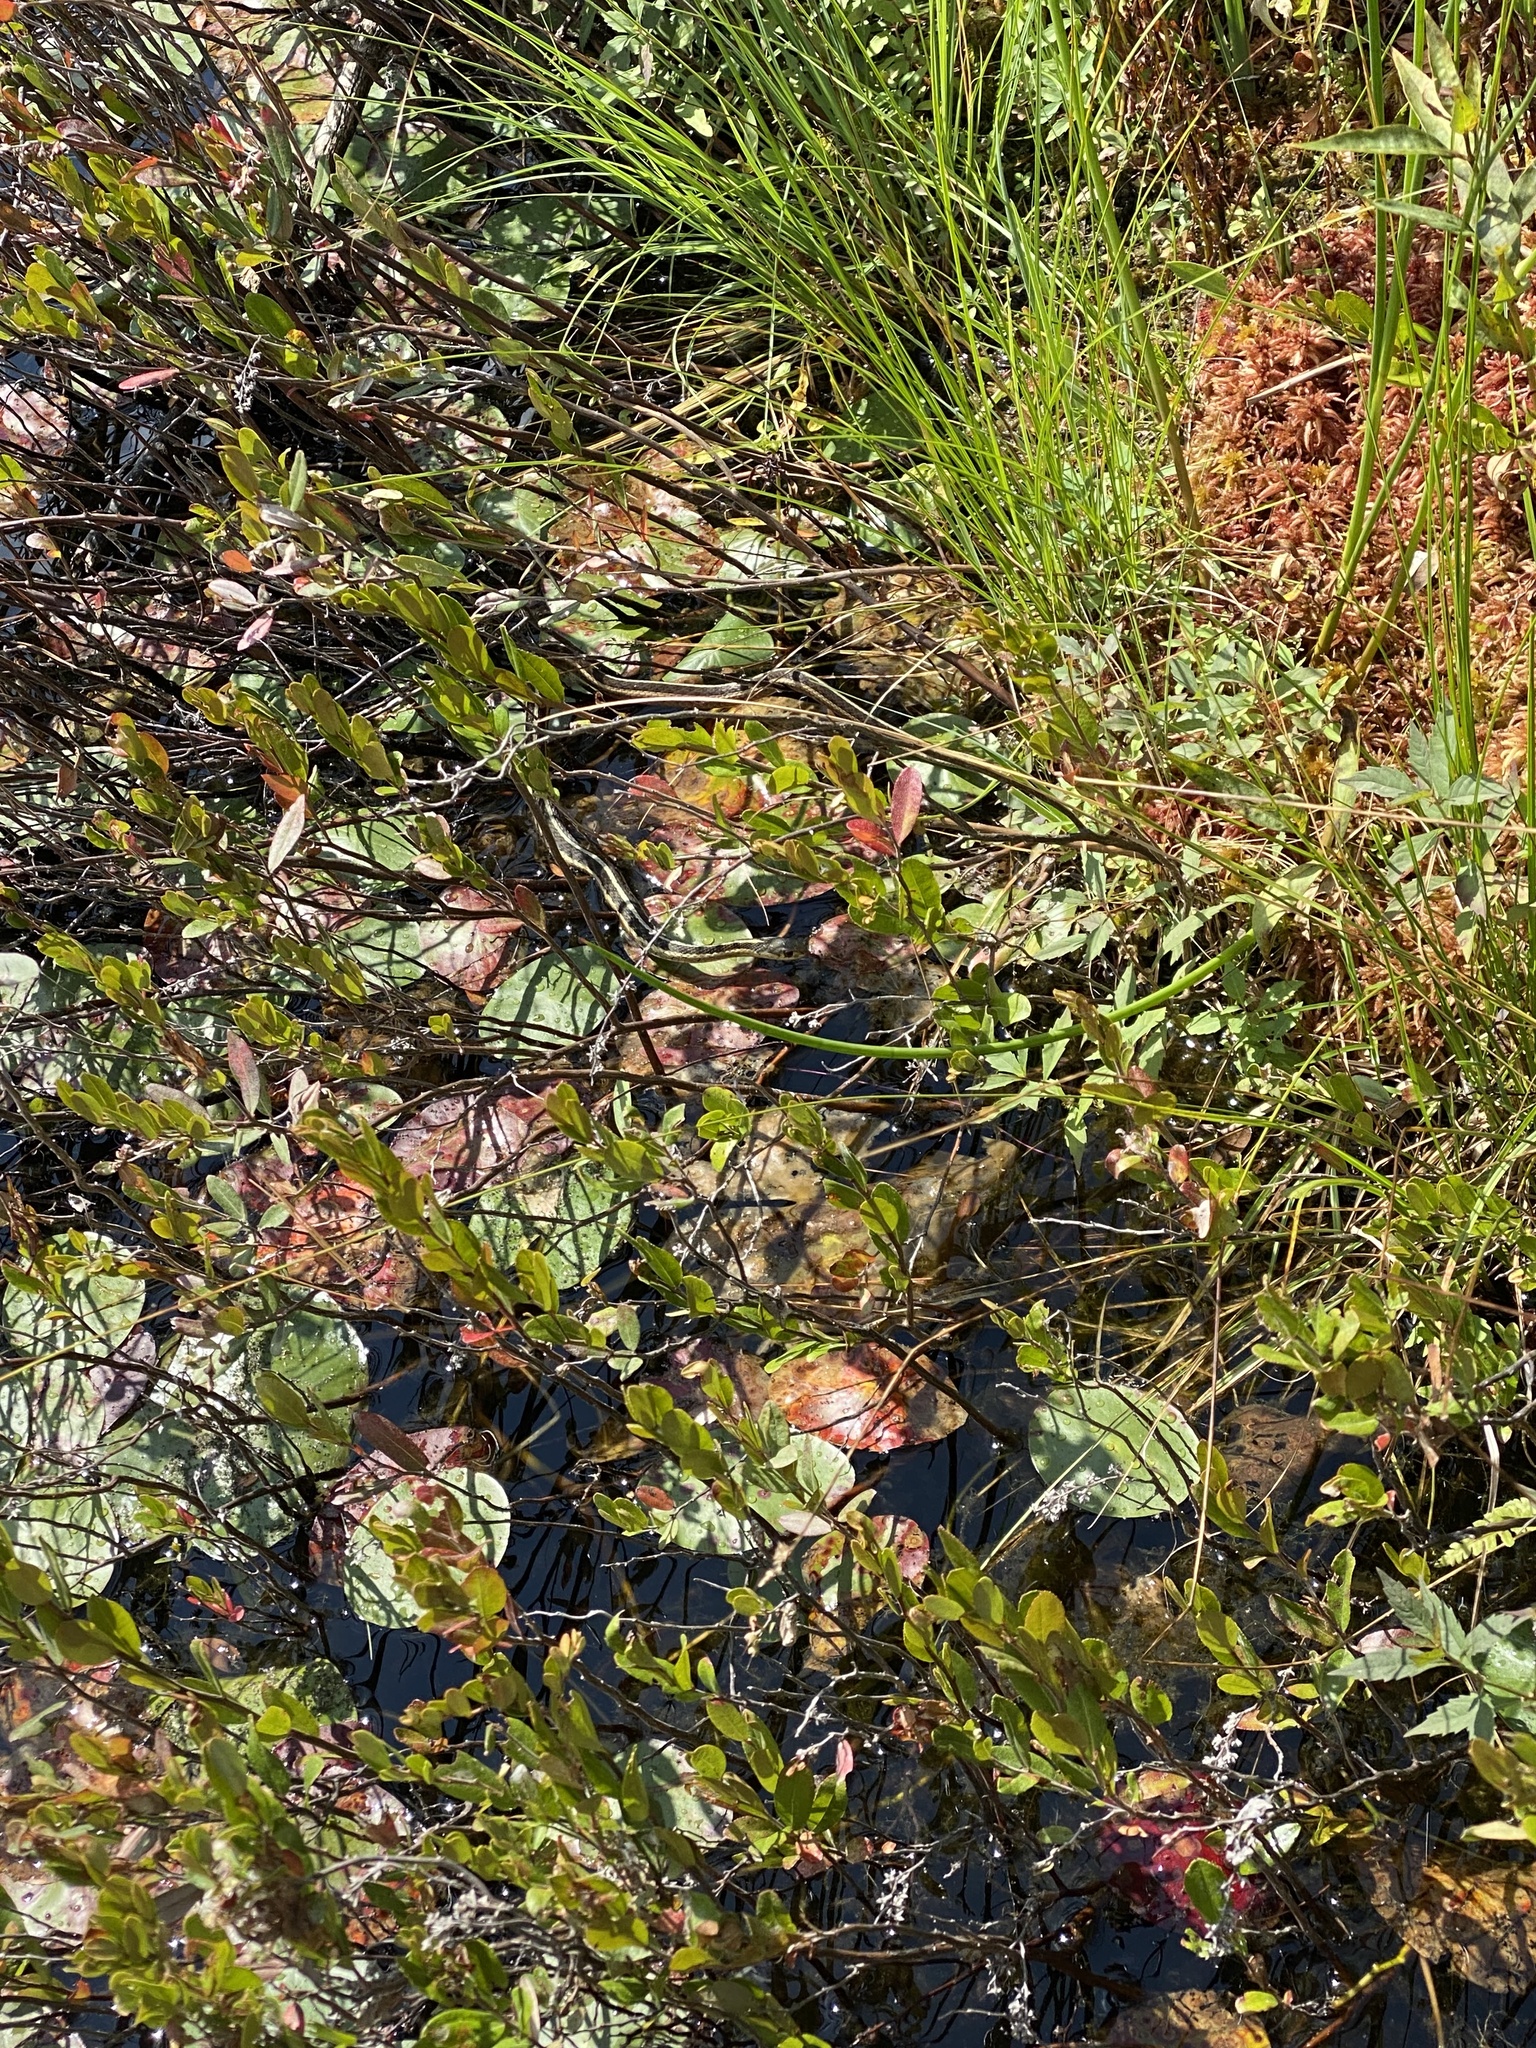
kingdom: Animalia
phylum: Chordata
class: Squamata
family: Colubridae
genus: Thamnophis
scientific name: Thamnophis sirtalis
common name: Common garter snake
